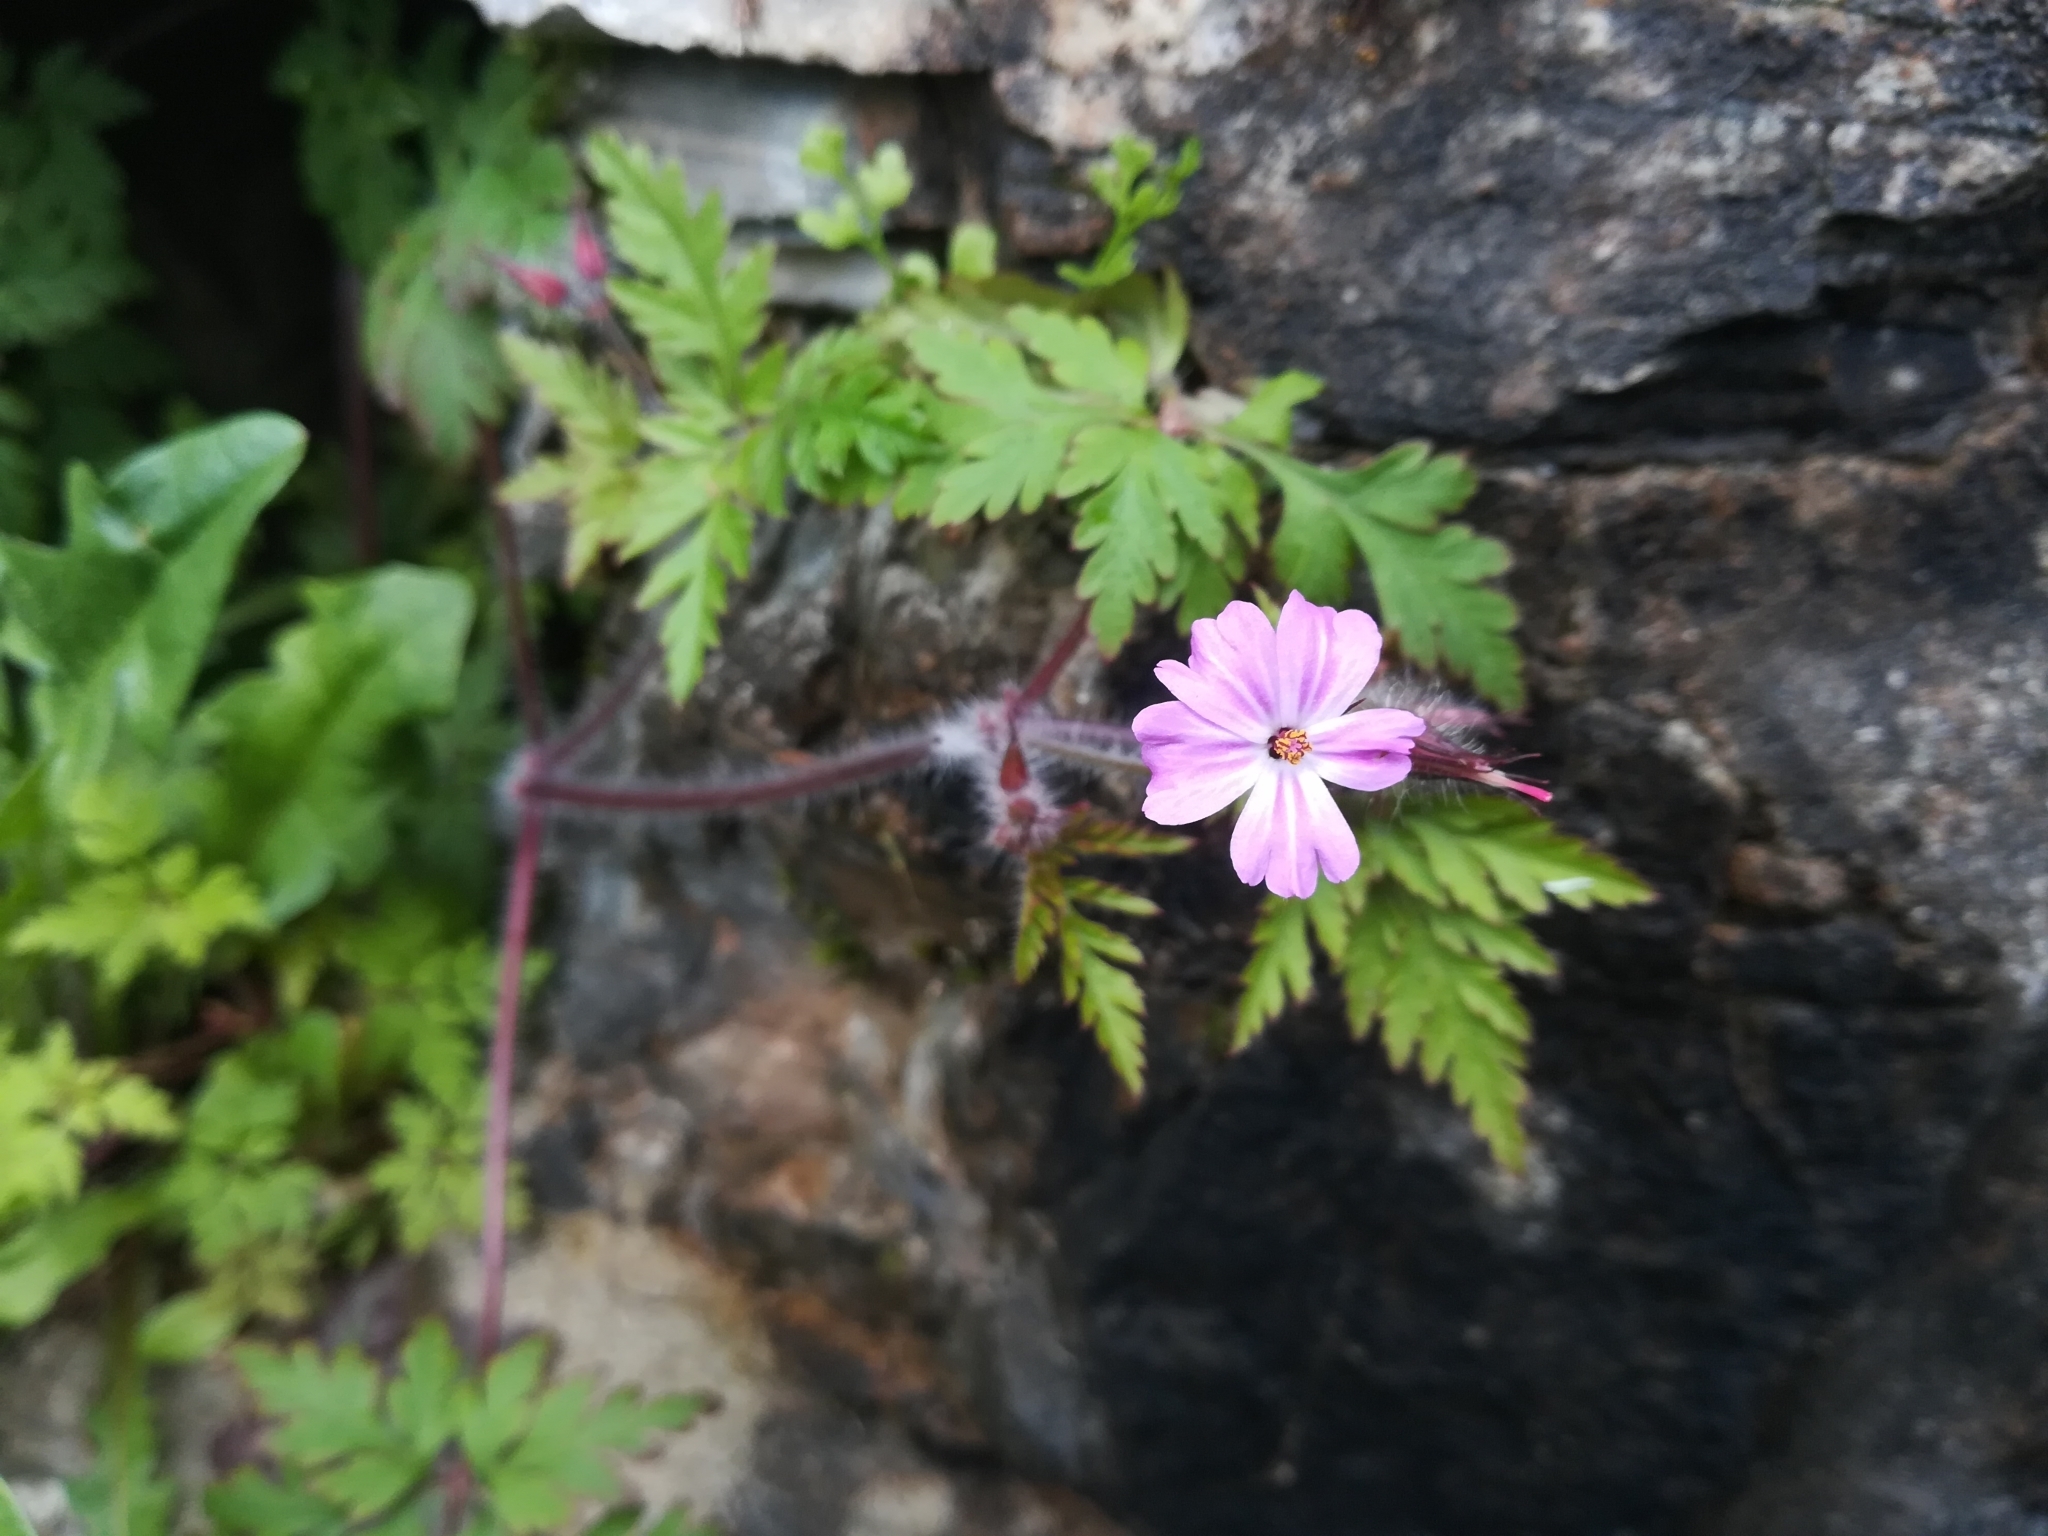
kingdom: Plantae
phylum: Tracheophyta
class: Magnoliopsida
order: Geraniales
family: Geraniaceae
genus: Geranium
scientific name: Geranium robertianum
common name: Herb-robert
